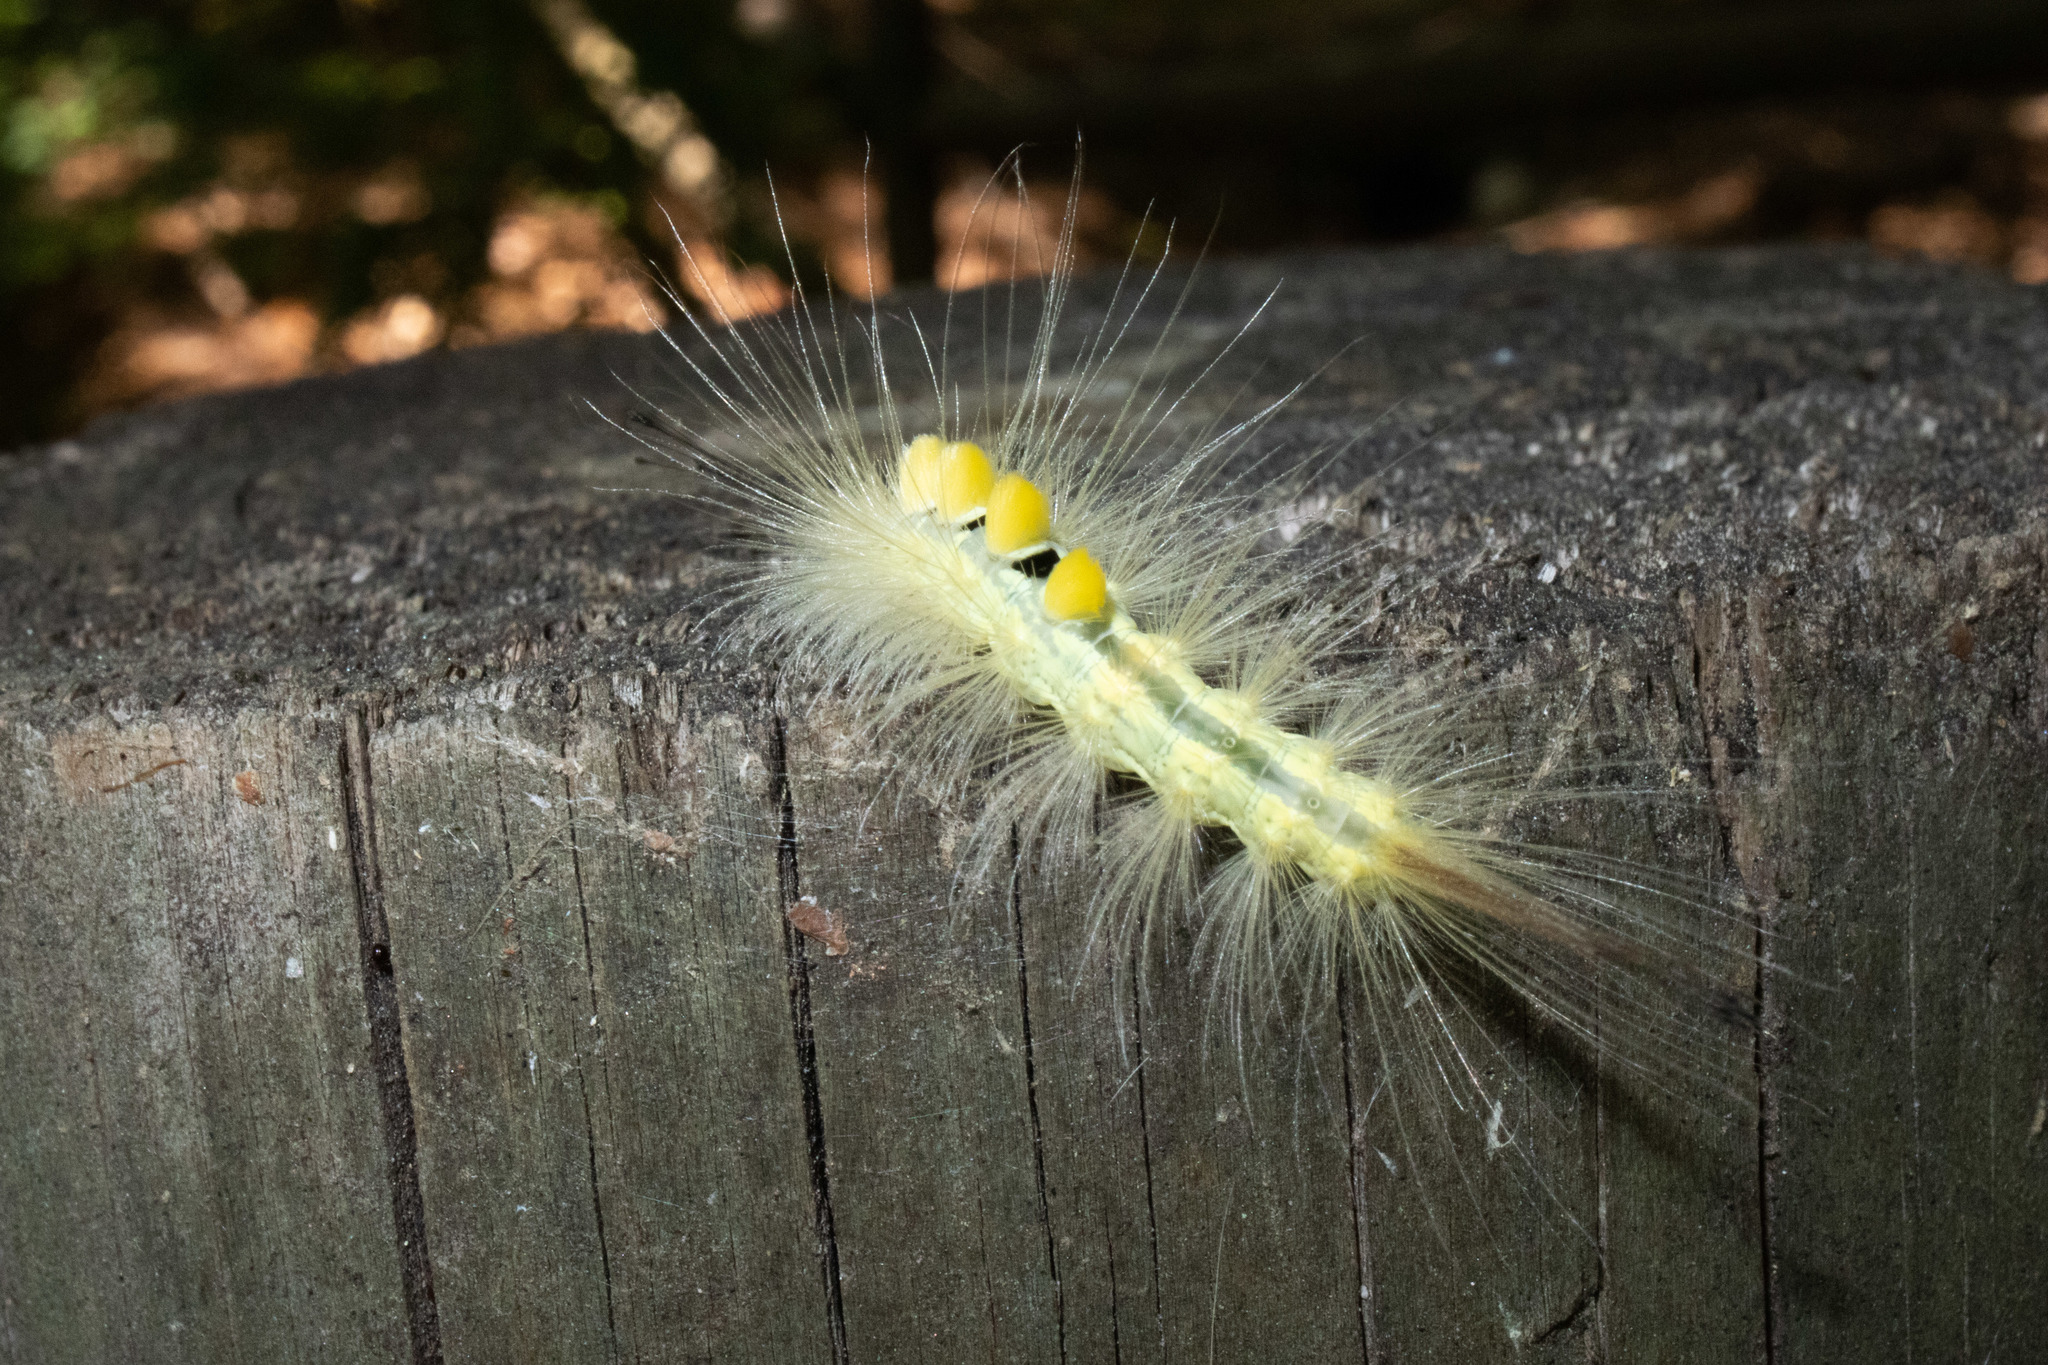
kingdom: Animalia
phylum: Arthropoda
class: Insecta
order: Lepidoptera
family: Erebidae
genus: Orgyia
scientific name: Orgyia definita
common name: Definite tussock moth
